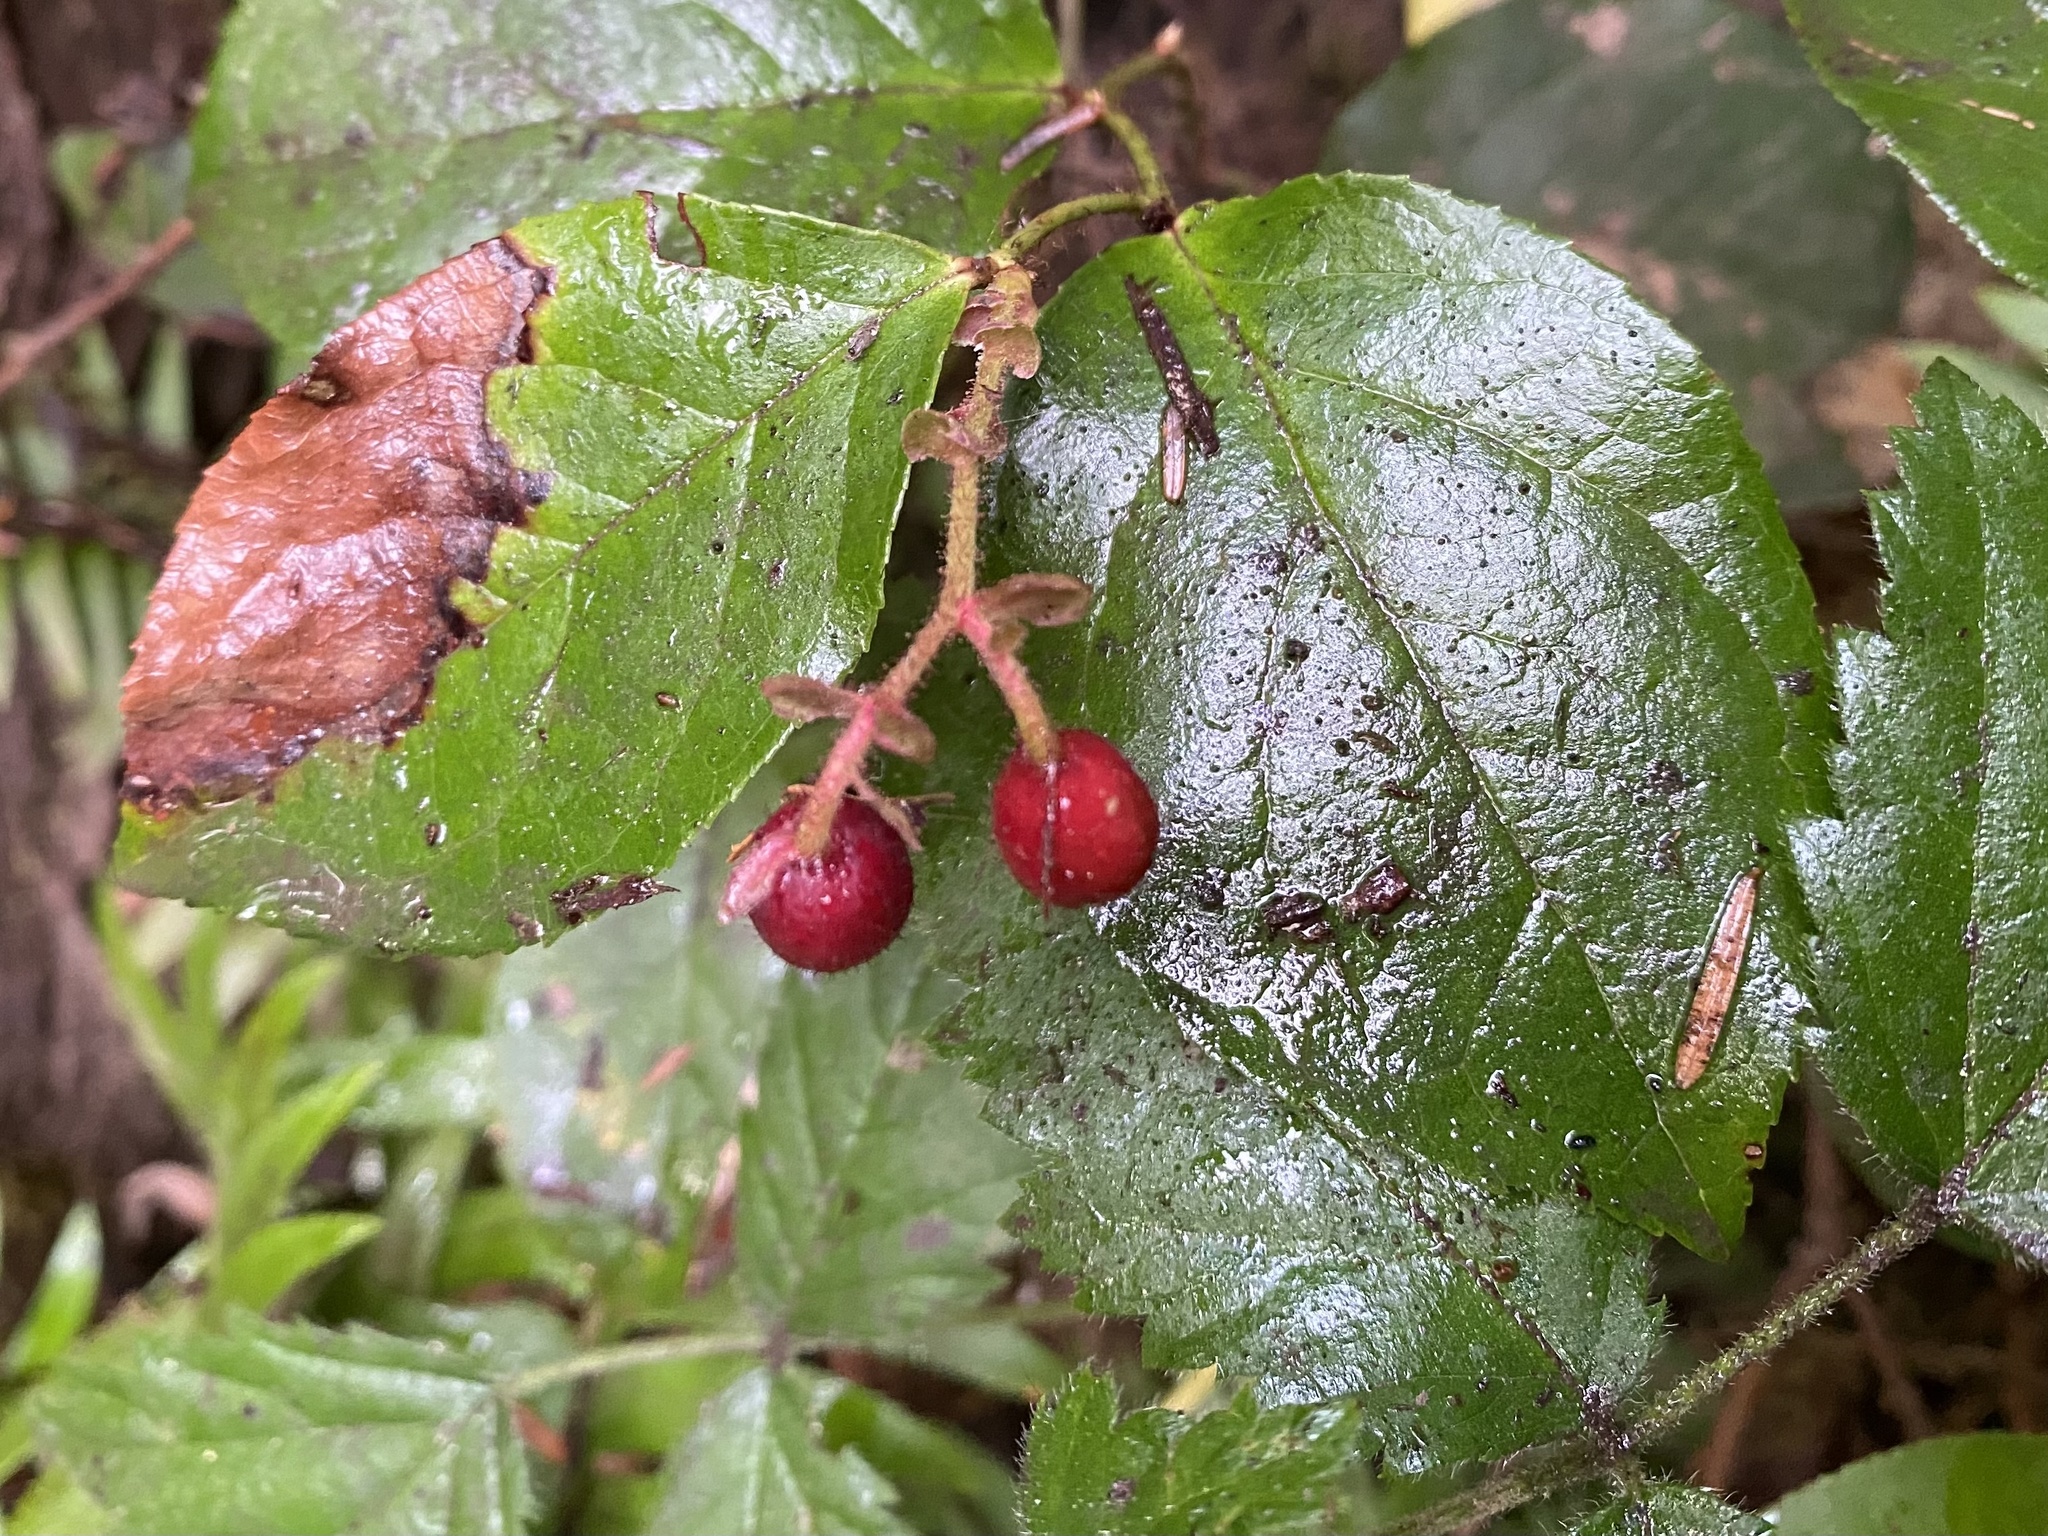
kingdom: Plantae
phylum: Tracheophyta
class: Magnoliopsida
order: Ericales
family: Ericaceae
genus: Gaultheria
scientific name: Gaultheria shallon
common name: Shallon
